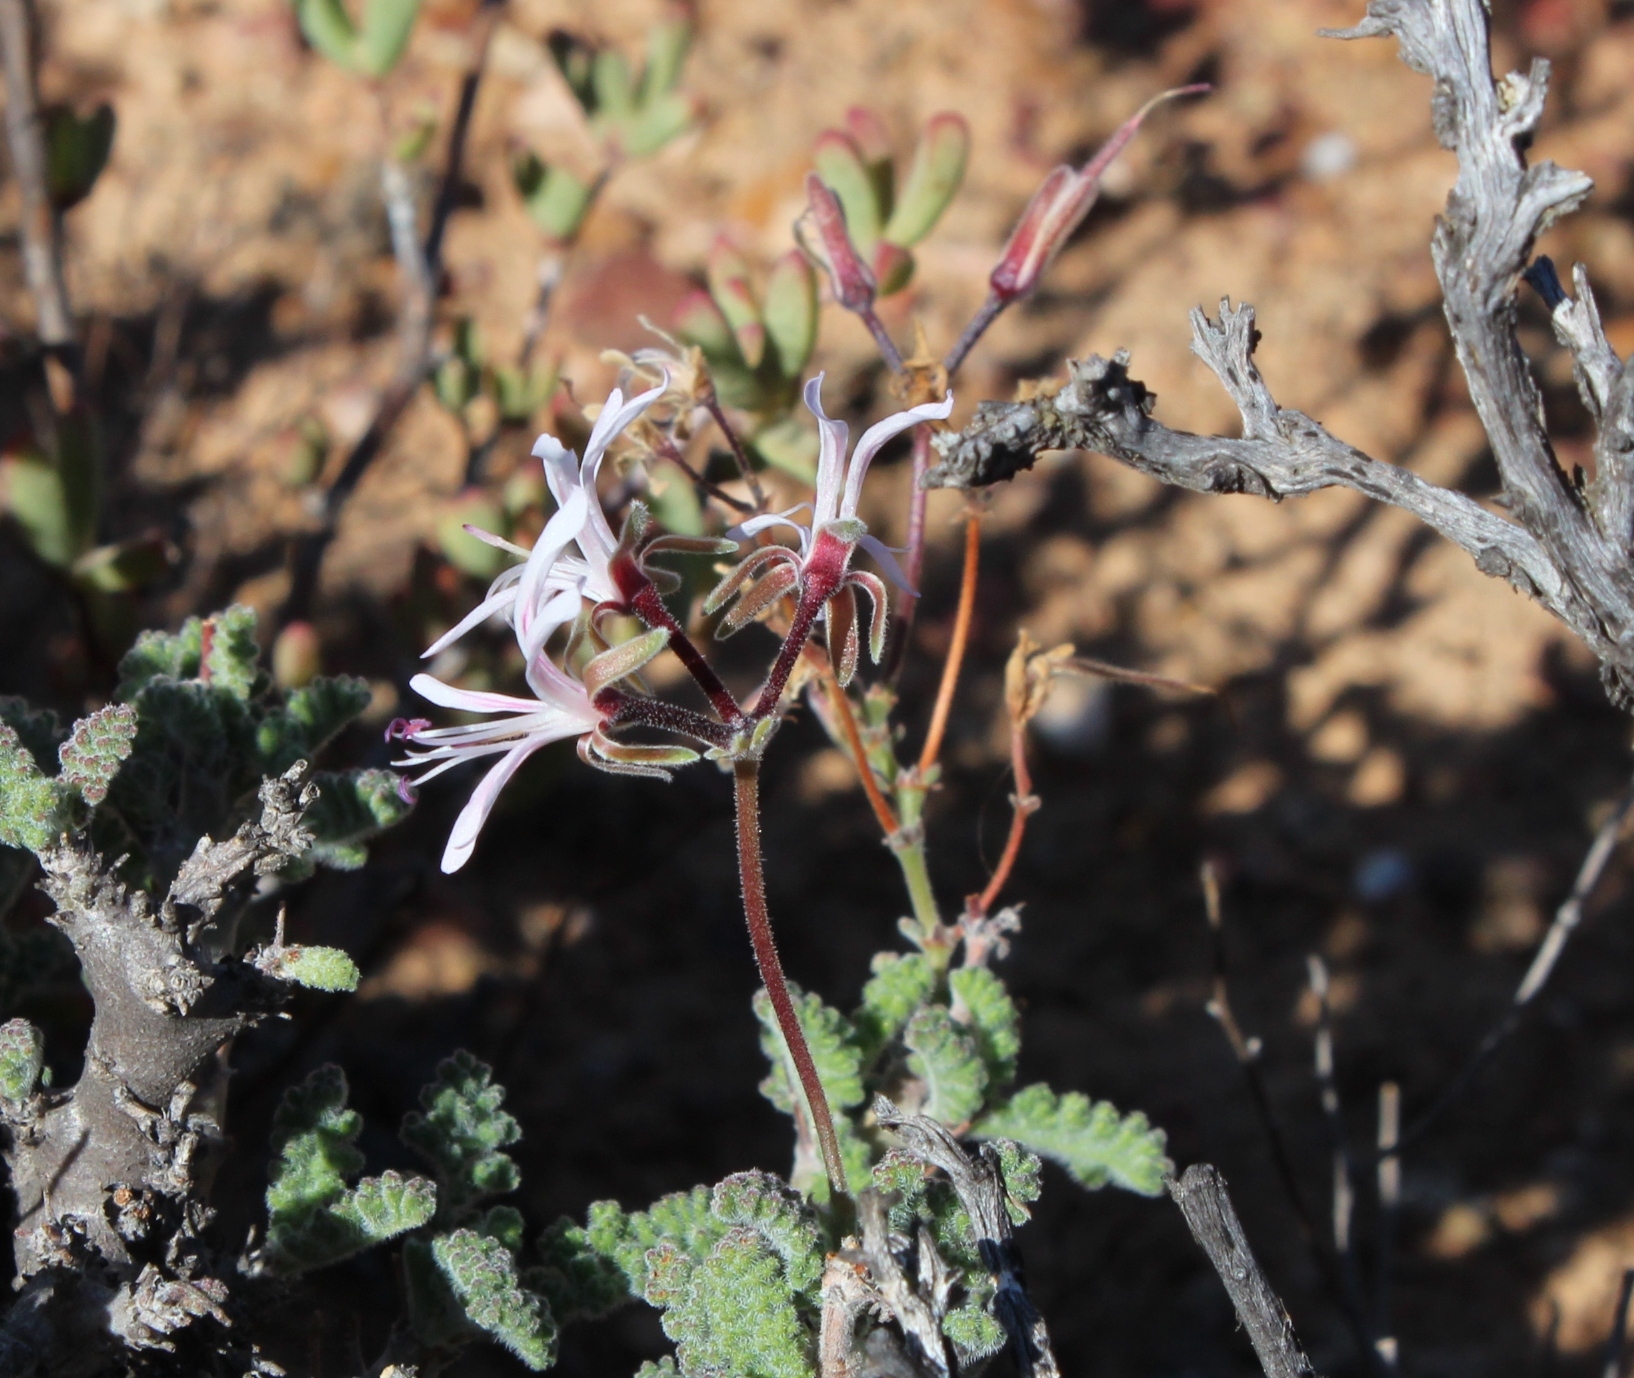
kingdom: Plantae
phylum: Tracheophyta
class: Magnoliopsida
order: Geraniales
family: Geraniaceae
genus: Pelargonium
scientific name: Pelargonium alternans
